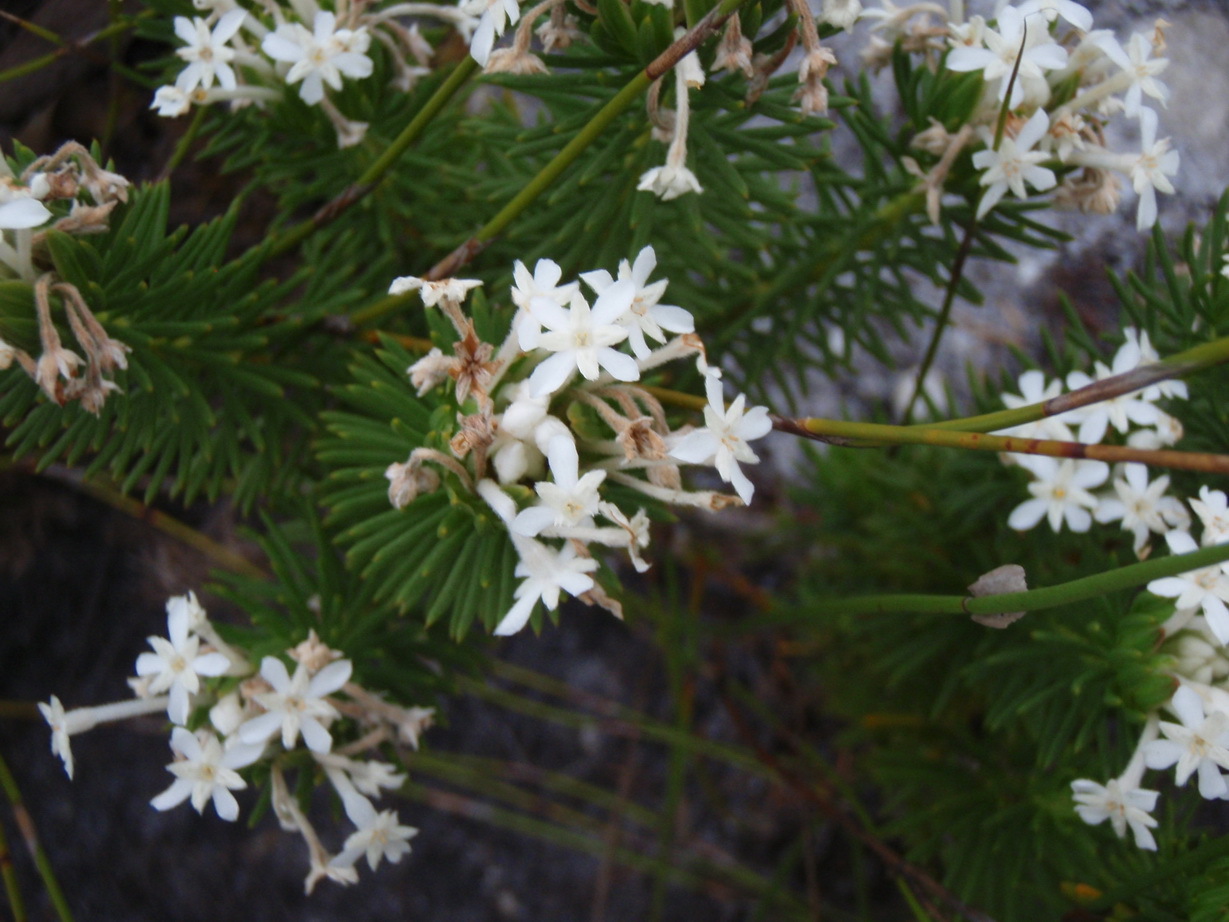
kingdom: Plantae
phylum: Tracheophyta
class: Magnoliopsida
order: Malvales
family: Thymelaeaceae
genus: Gnidia
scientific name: Gnidia pinifolia
